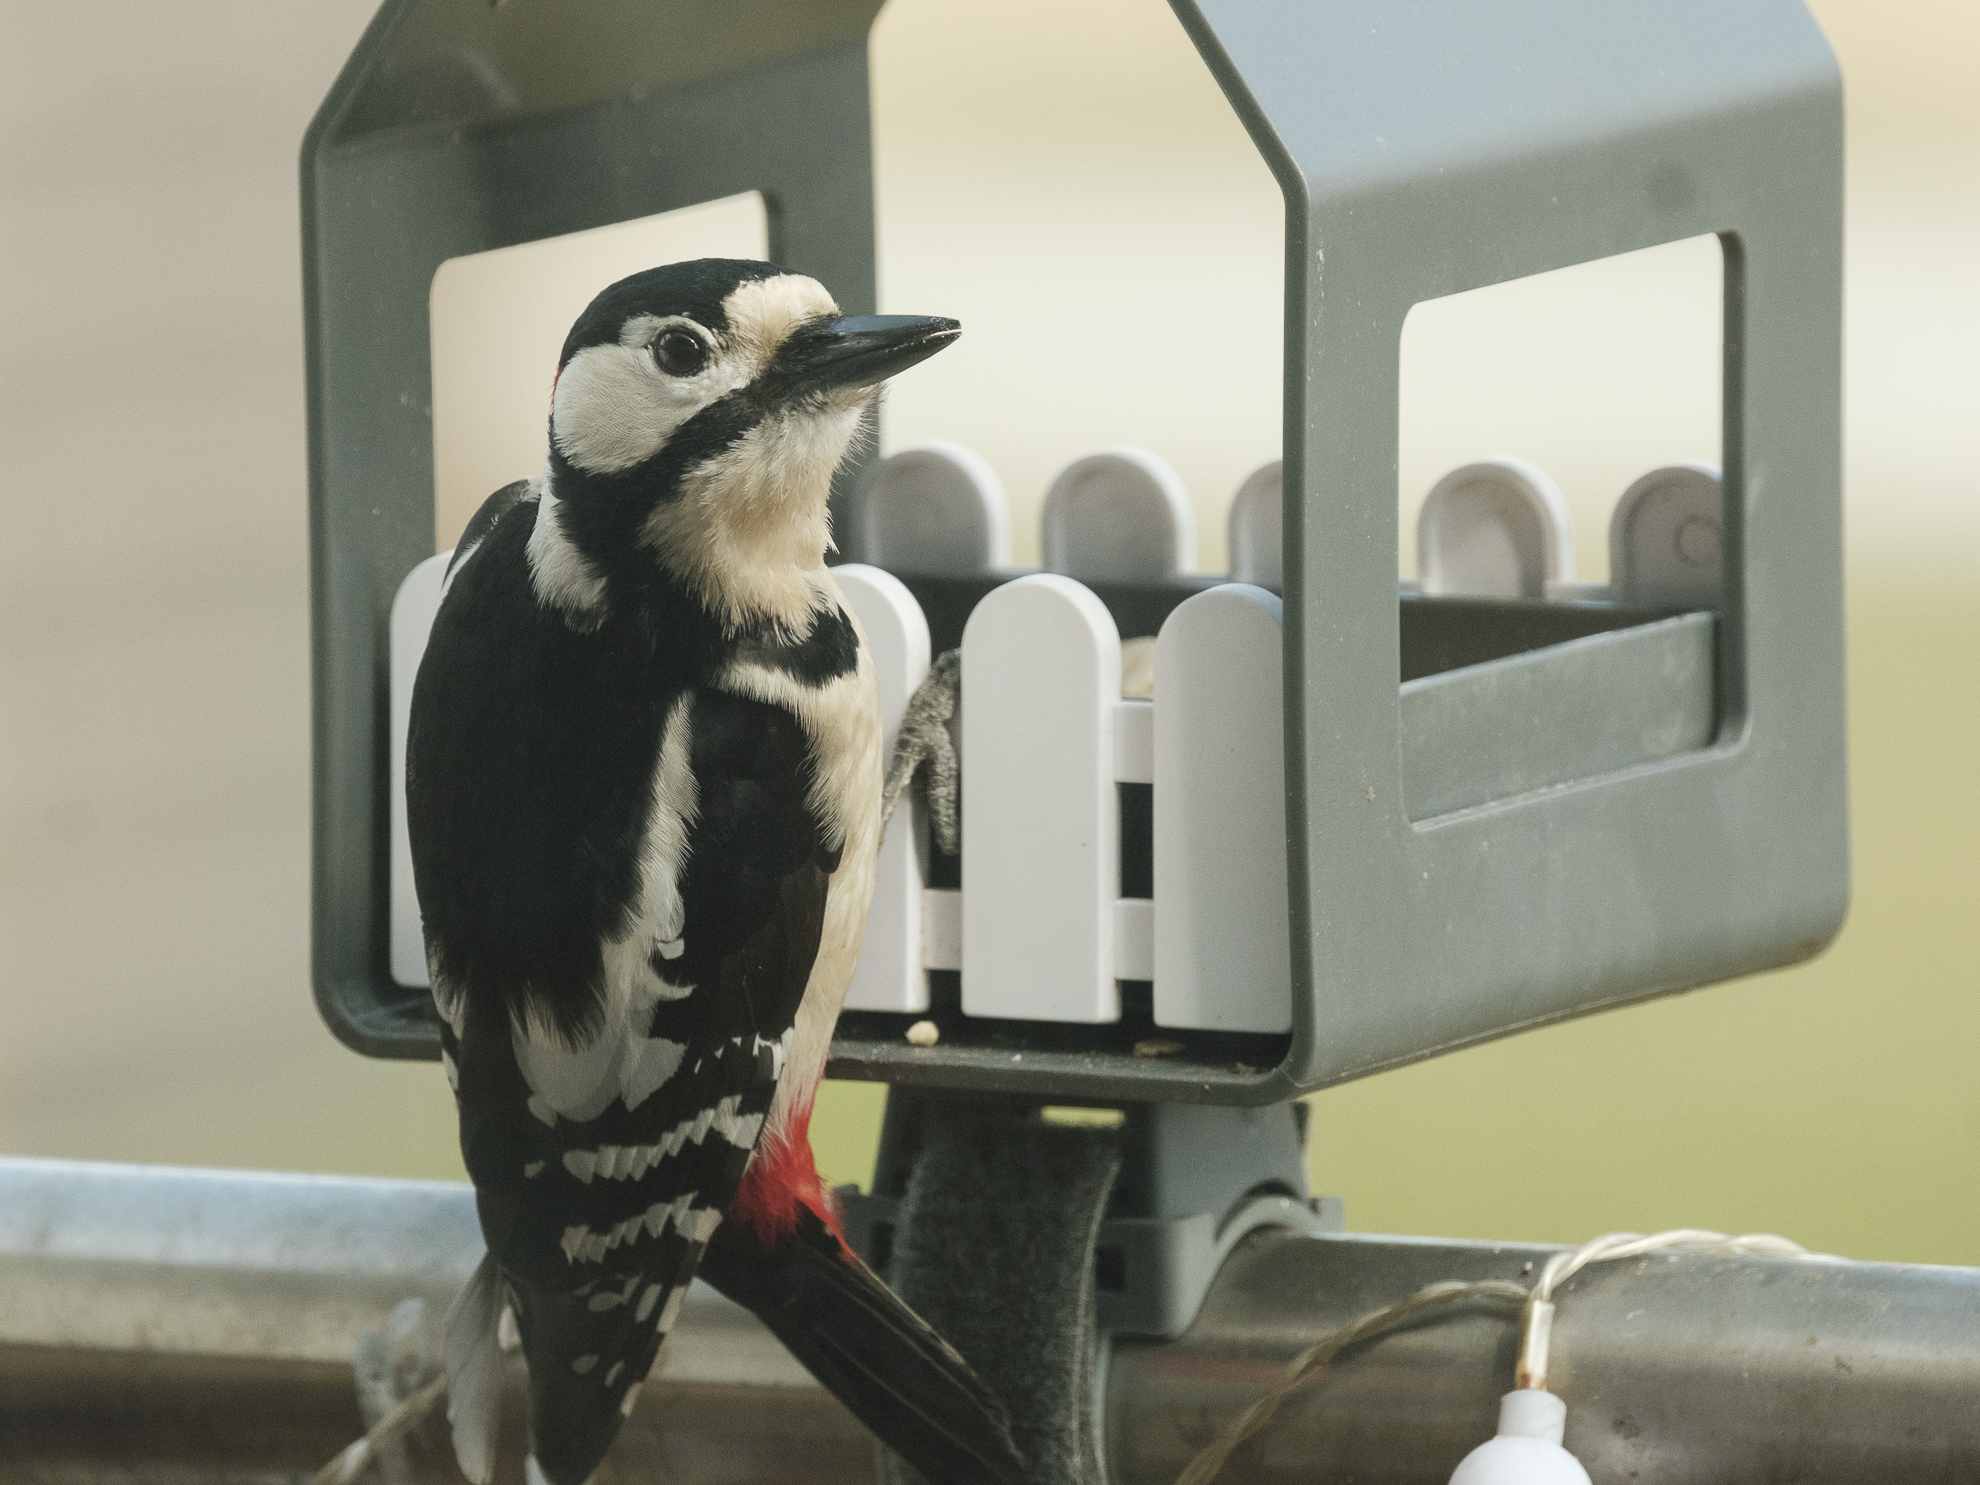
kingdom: Animalia
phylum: Chordata
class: Aves
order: Piciformes
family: Picidae
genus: Dendrocopos
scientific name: Dendrocopos major
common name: Great spotted woodpecker
